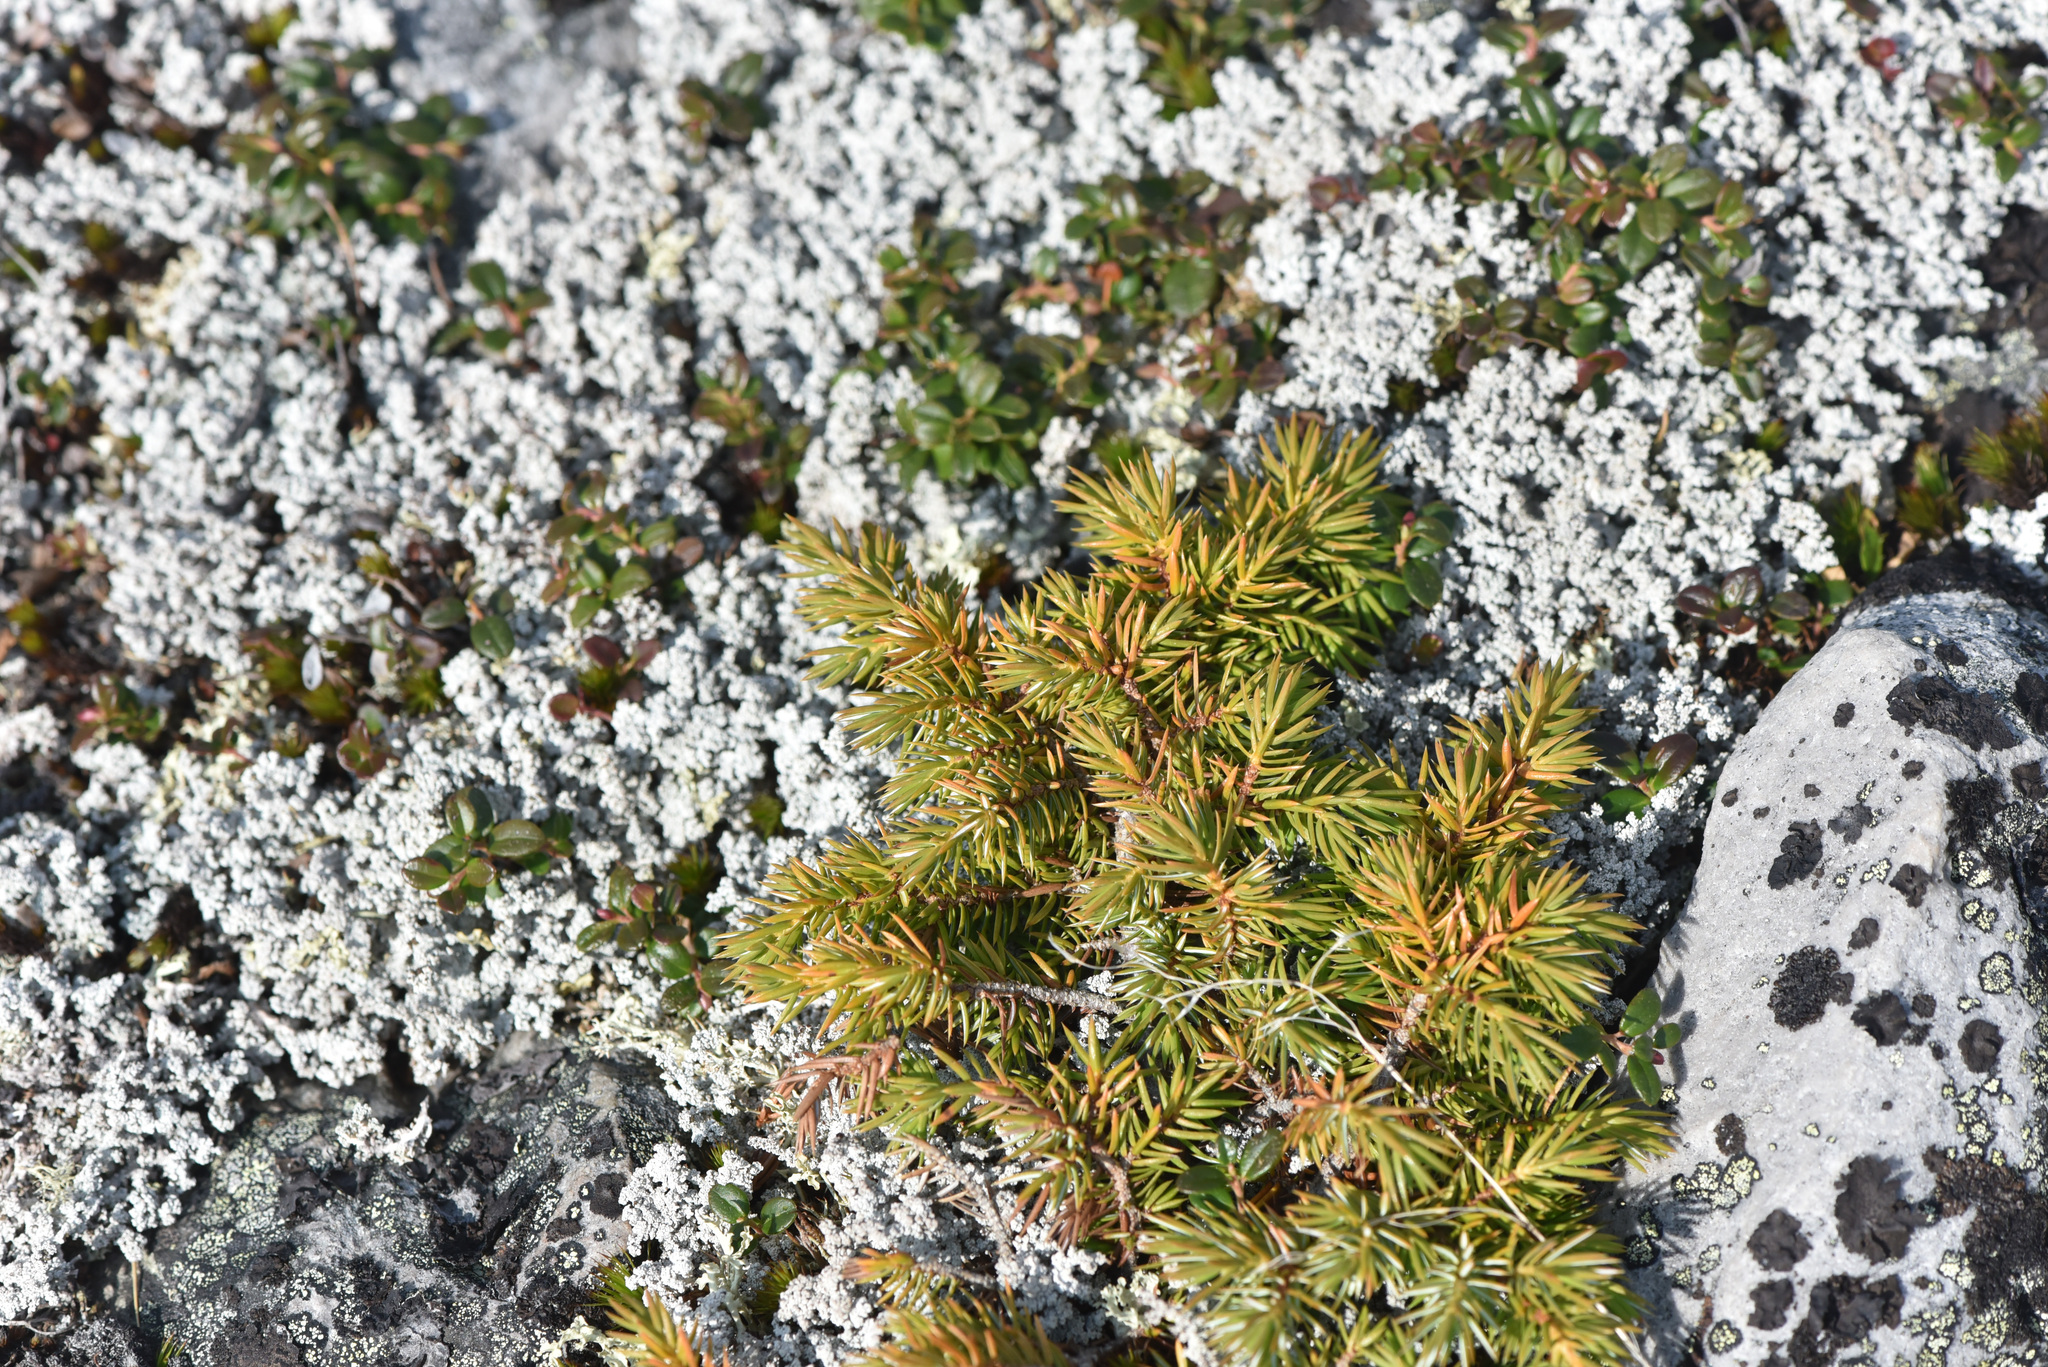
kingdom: Plantae
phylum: Tracheophyta
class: Pinopsida
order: Pinales
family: Cupressaceae
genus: Juniperus
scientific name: Juniperus communis
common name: Common juniper
